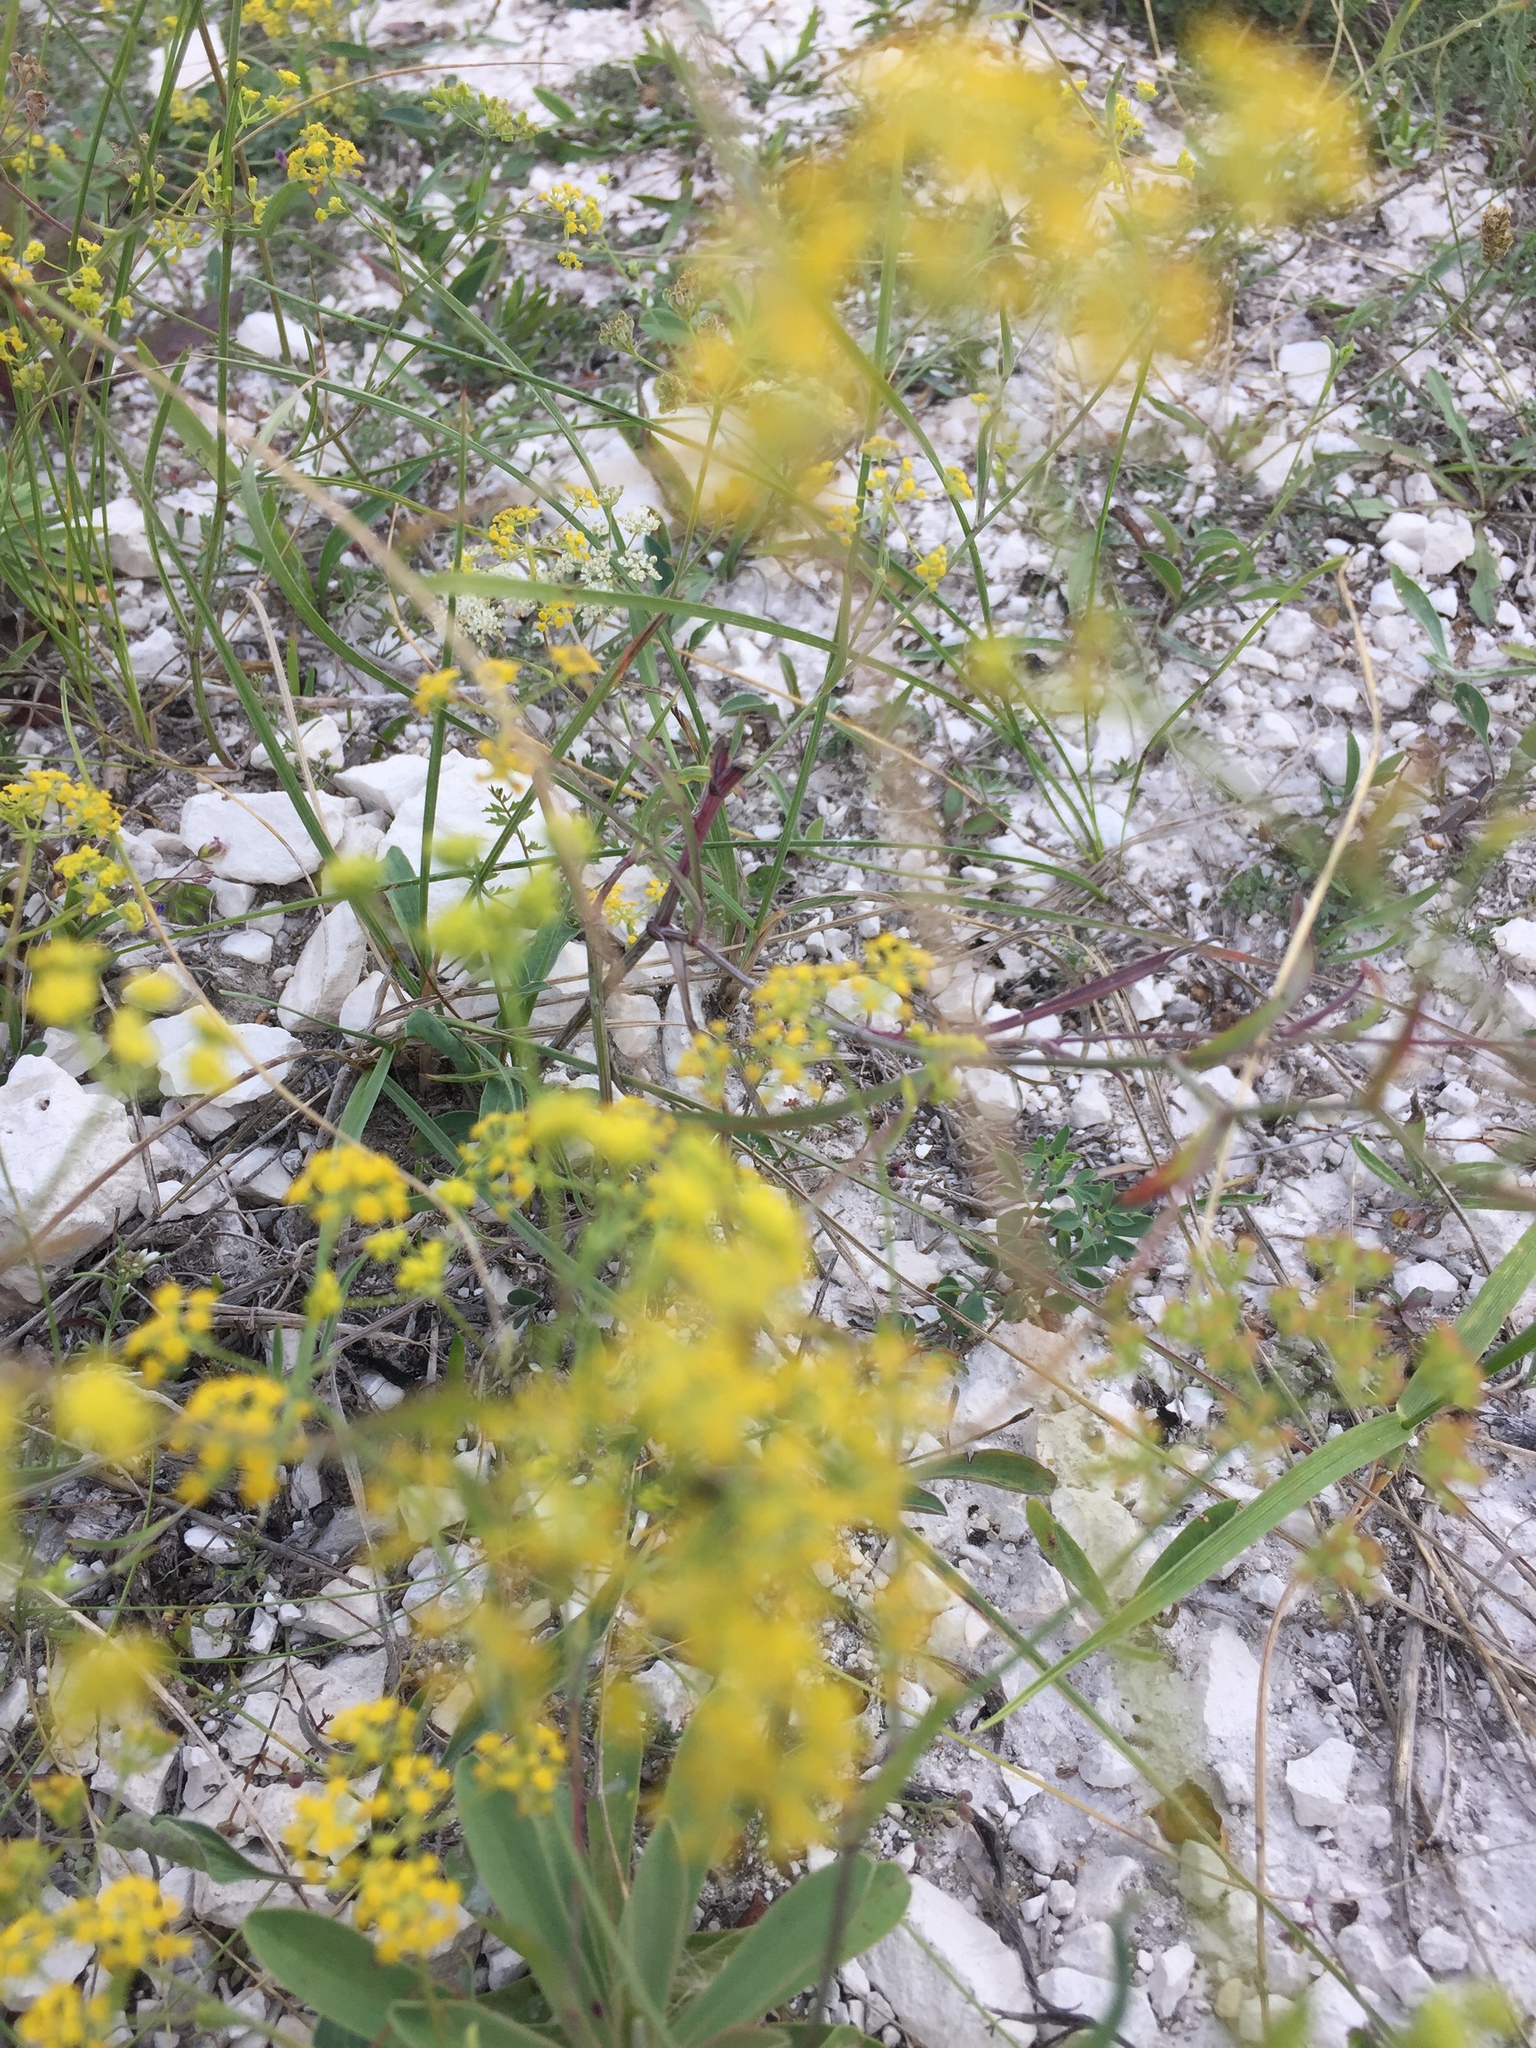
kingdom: Plantae
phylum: Tracheophyta
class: Magnoliopsida
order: Gentianales
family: Rubiaceae
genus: Galium
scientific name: Galium verum
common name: Lady's bedstraw
